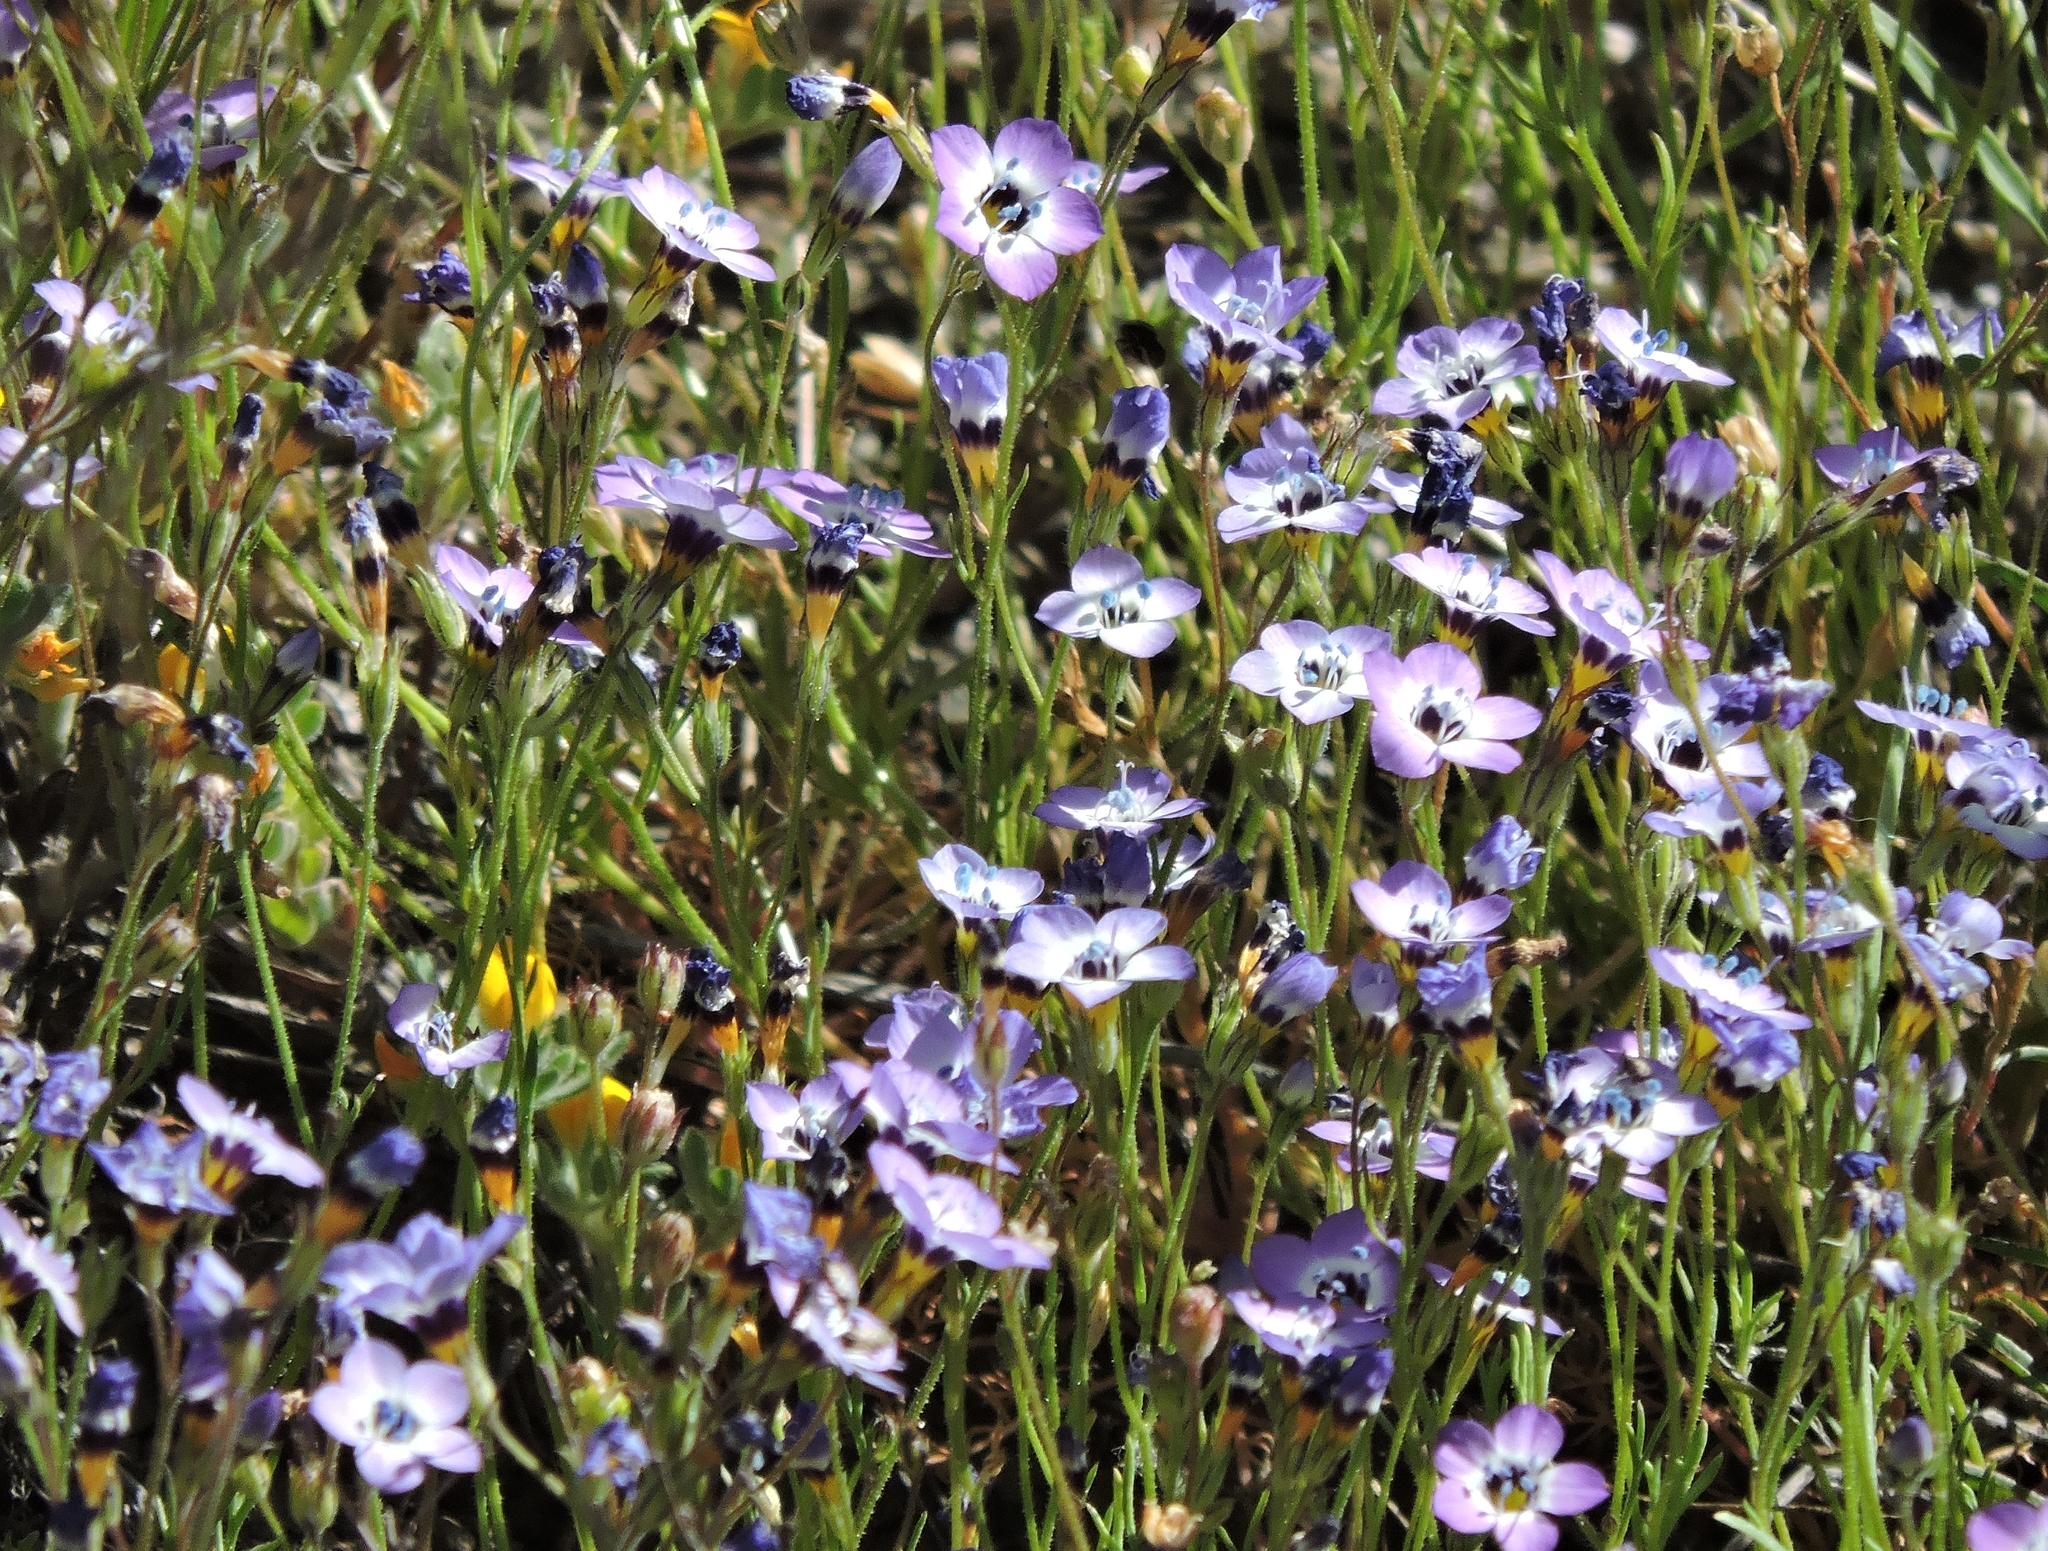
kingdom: Plantae
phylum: Tracheophyta
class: Magnoliopsida
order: Ericales
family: Polemoniaceae
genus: Gilia
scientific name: Gilia tricolor
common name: Bird's-eyes
